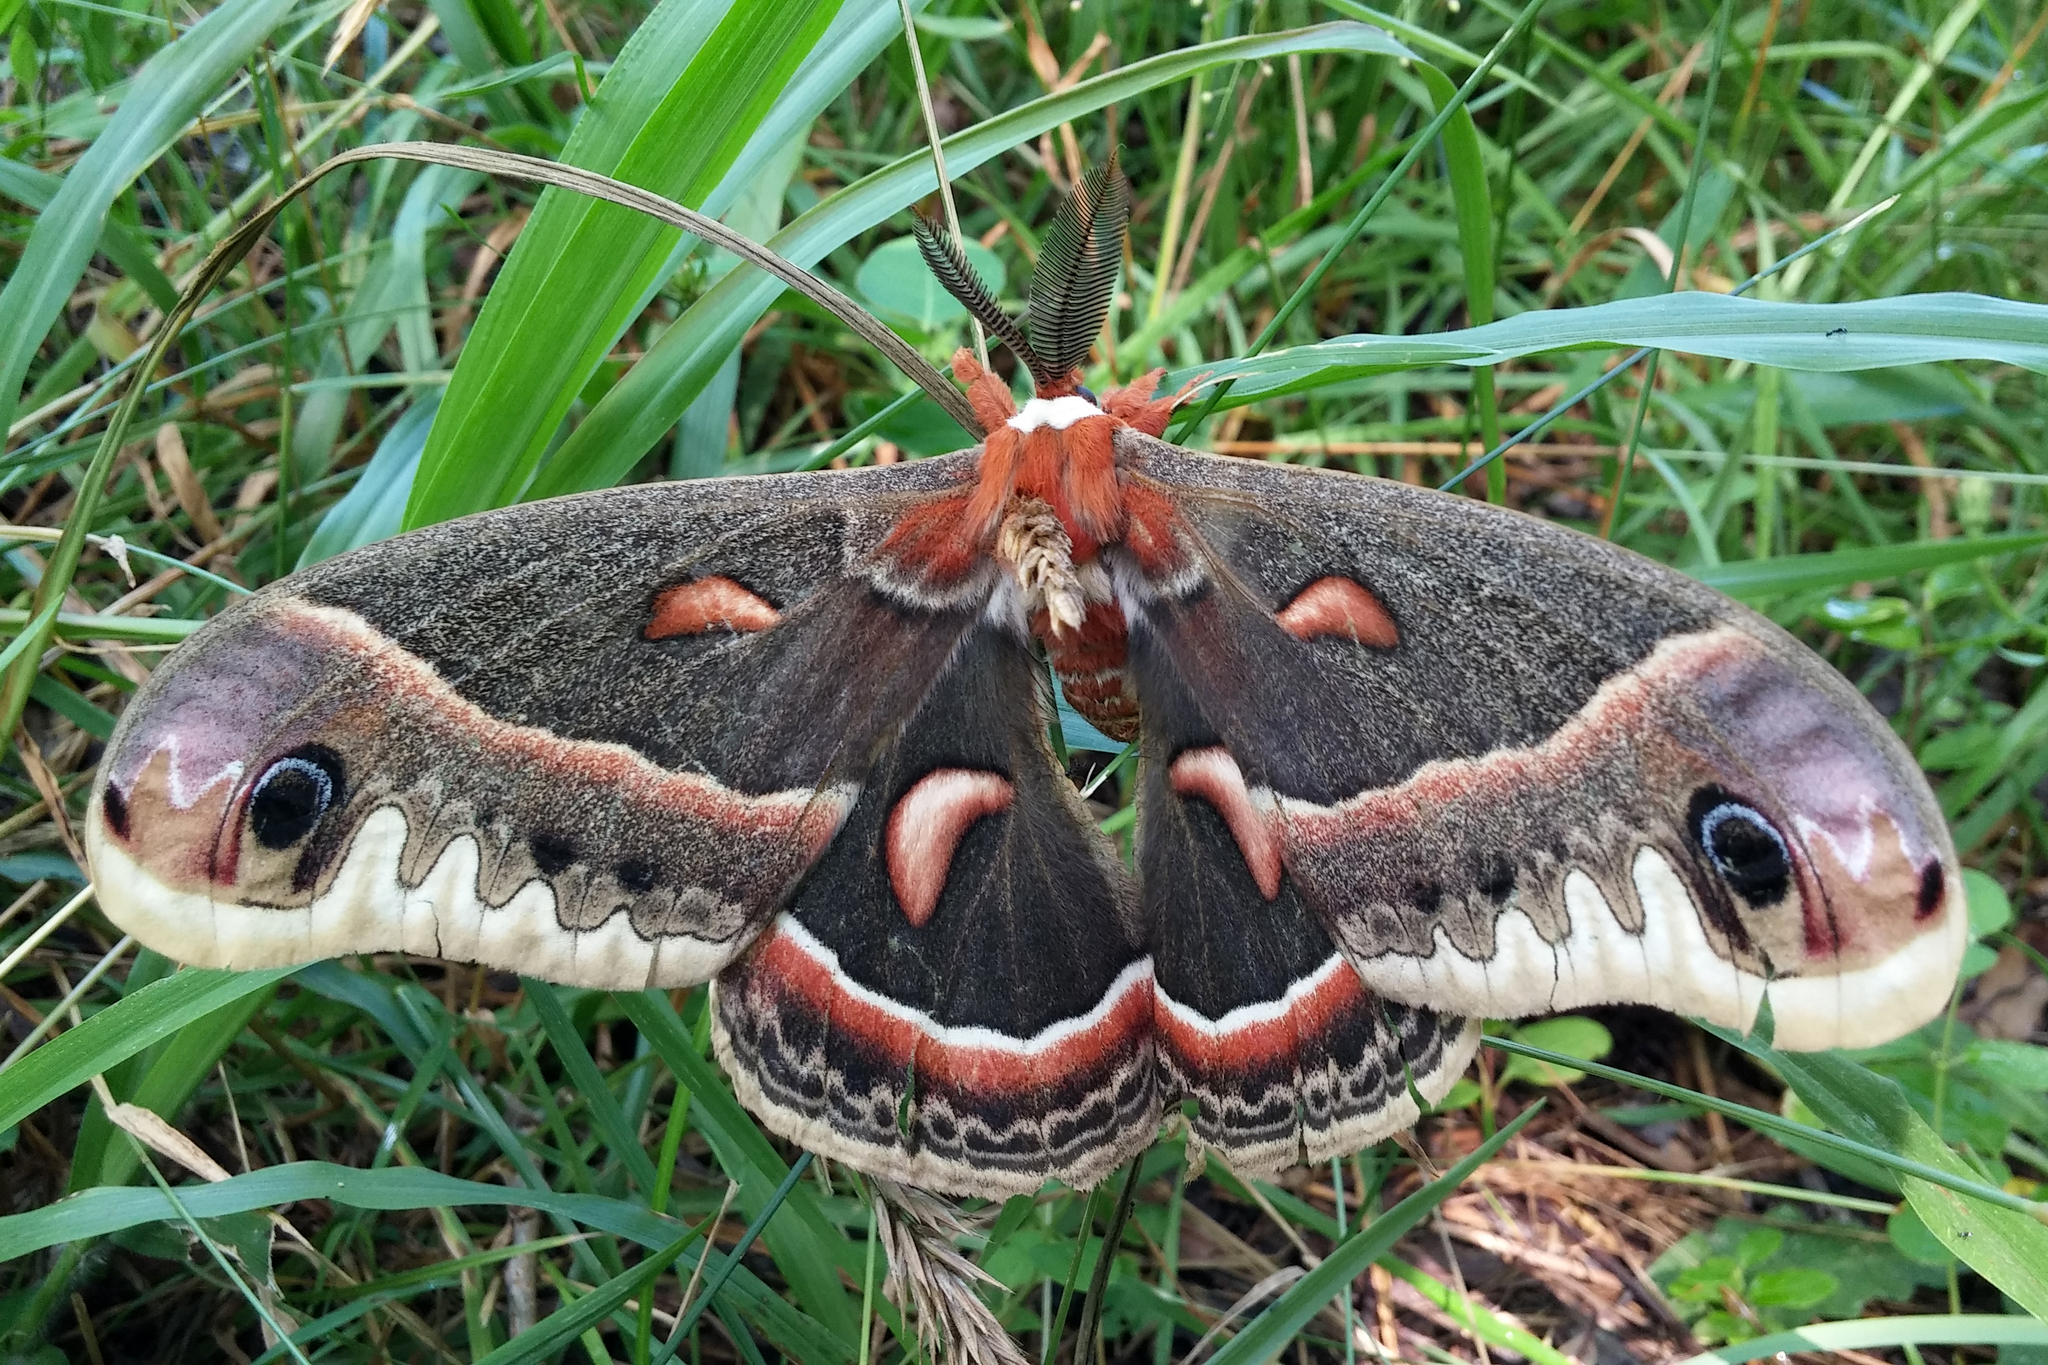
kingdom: Animalia
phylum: Arthropoda
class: Insecta
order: Lepidoptera
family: Saturniidae
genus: Hyalophora
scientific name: Hyalophora cecropia
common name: Cecropia silkmoth
